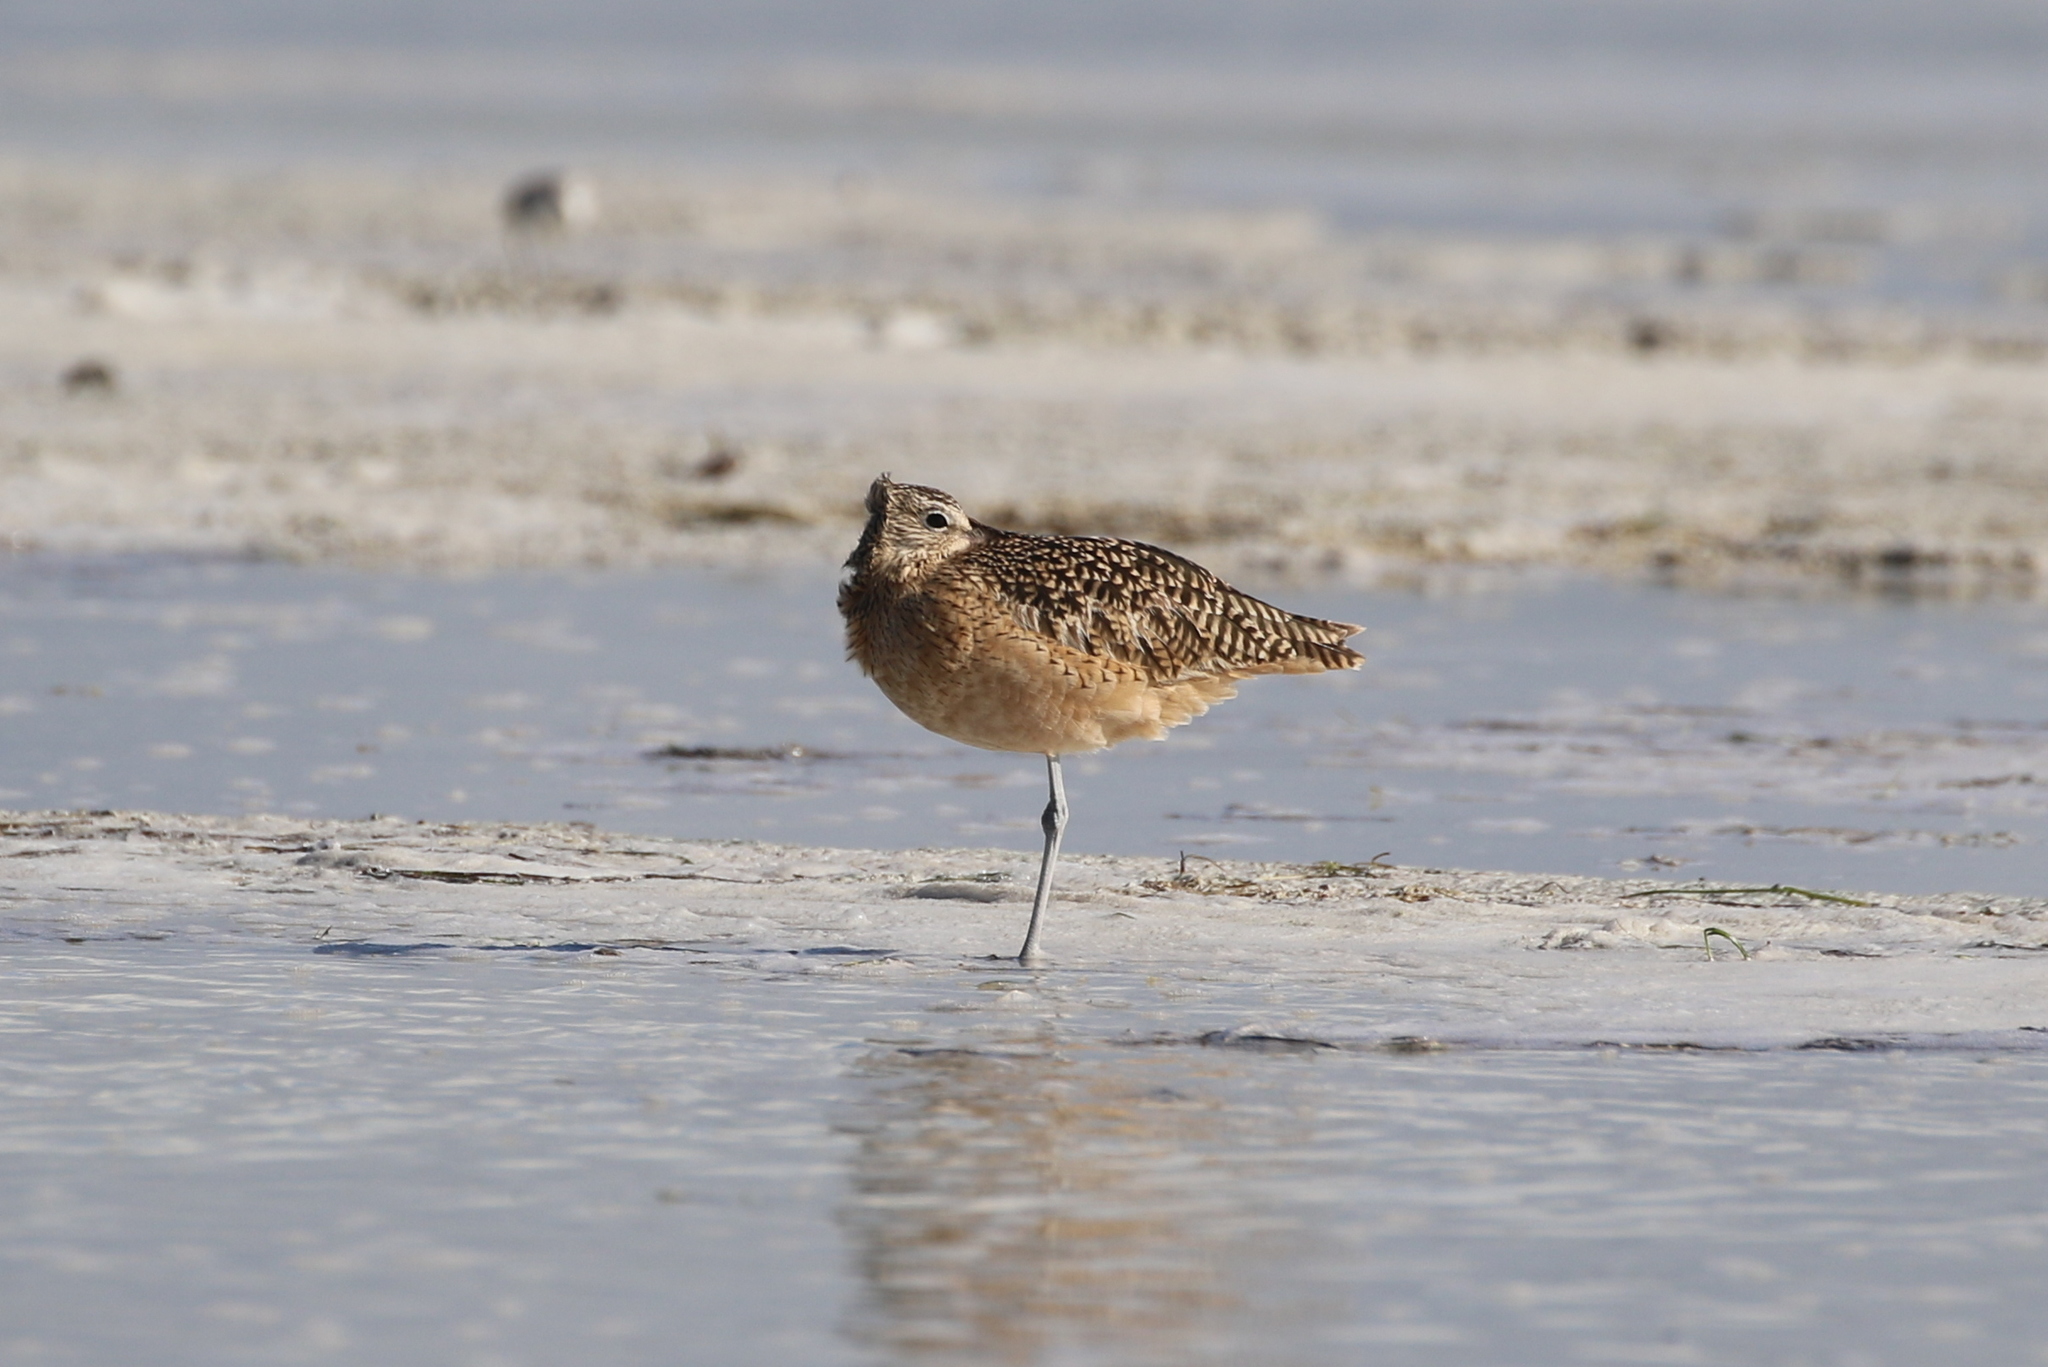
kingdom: Animalia
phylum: Chordata
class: Aves
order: Charadriiformes
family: Scolopacidae
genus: Numenius
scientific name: Numenius americanus
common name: Long-billed curlew
